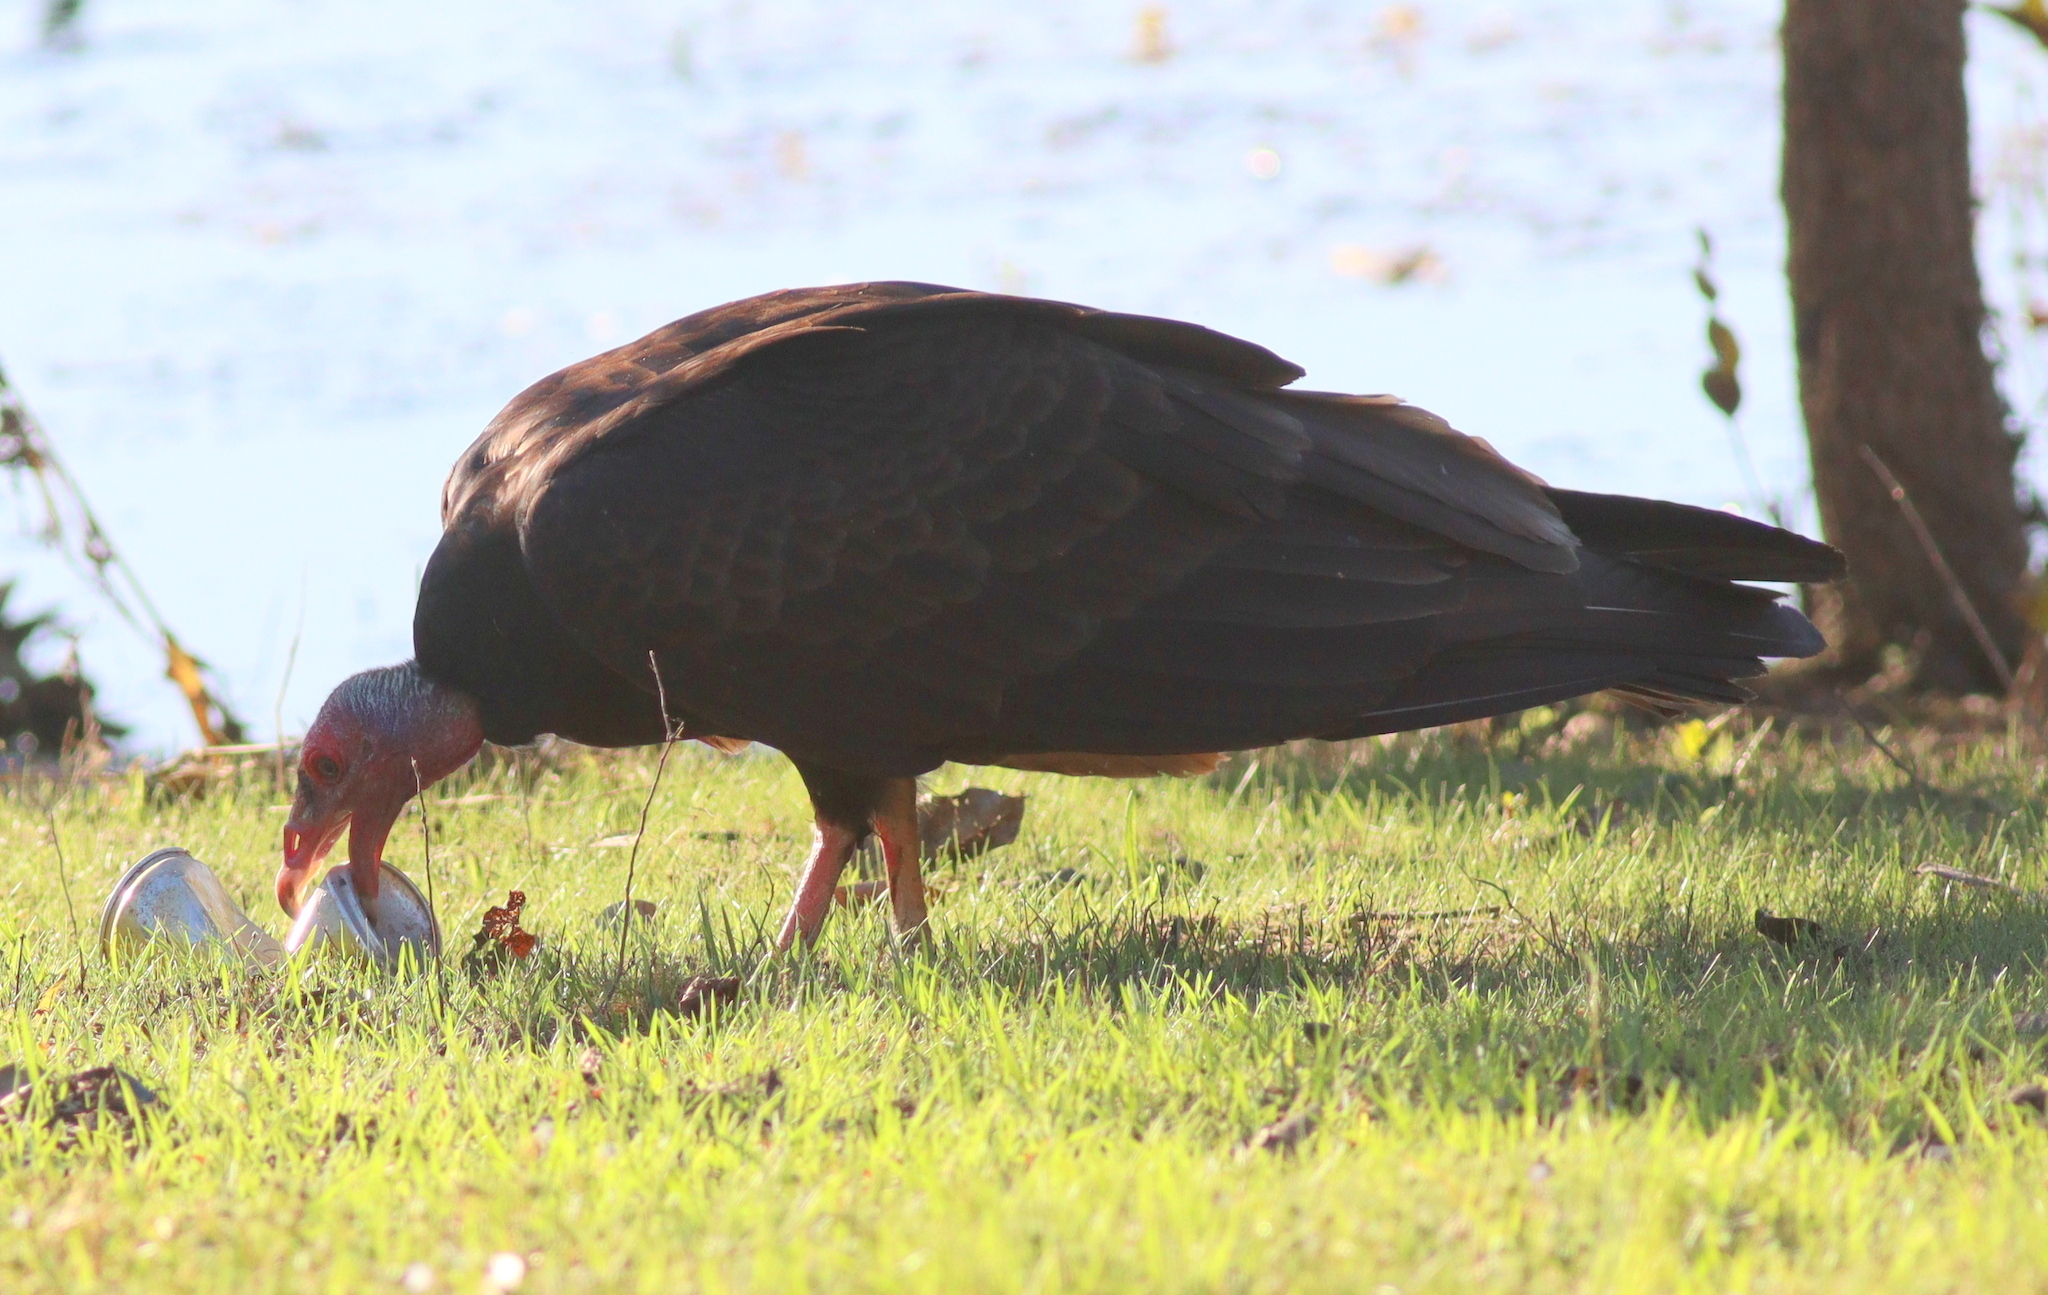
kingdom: Animalia
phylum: Chordata
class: Aves
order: Accipitriformes
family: Cathartidae
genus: Cathartes
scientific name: Cathartes aura
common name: Turkey vulture
